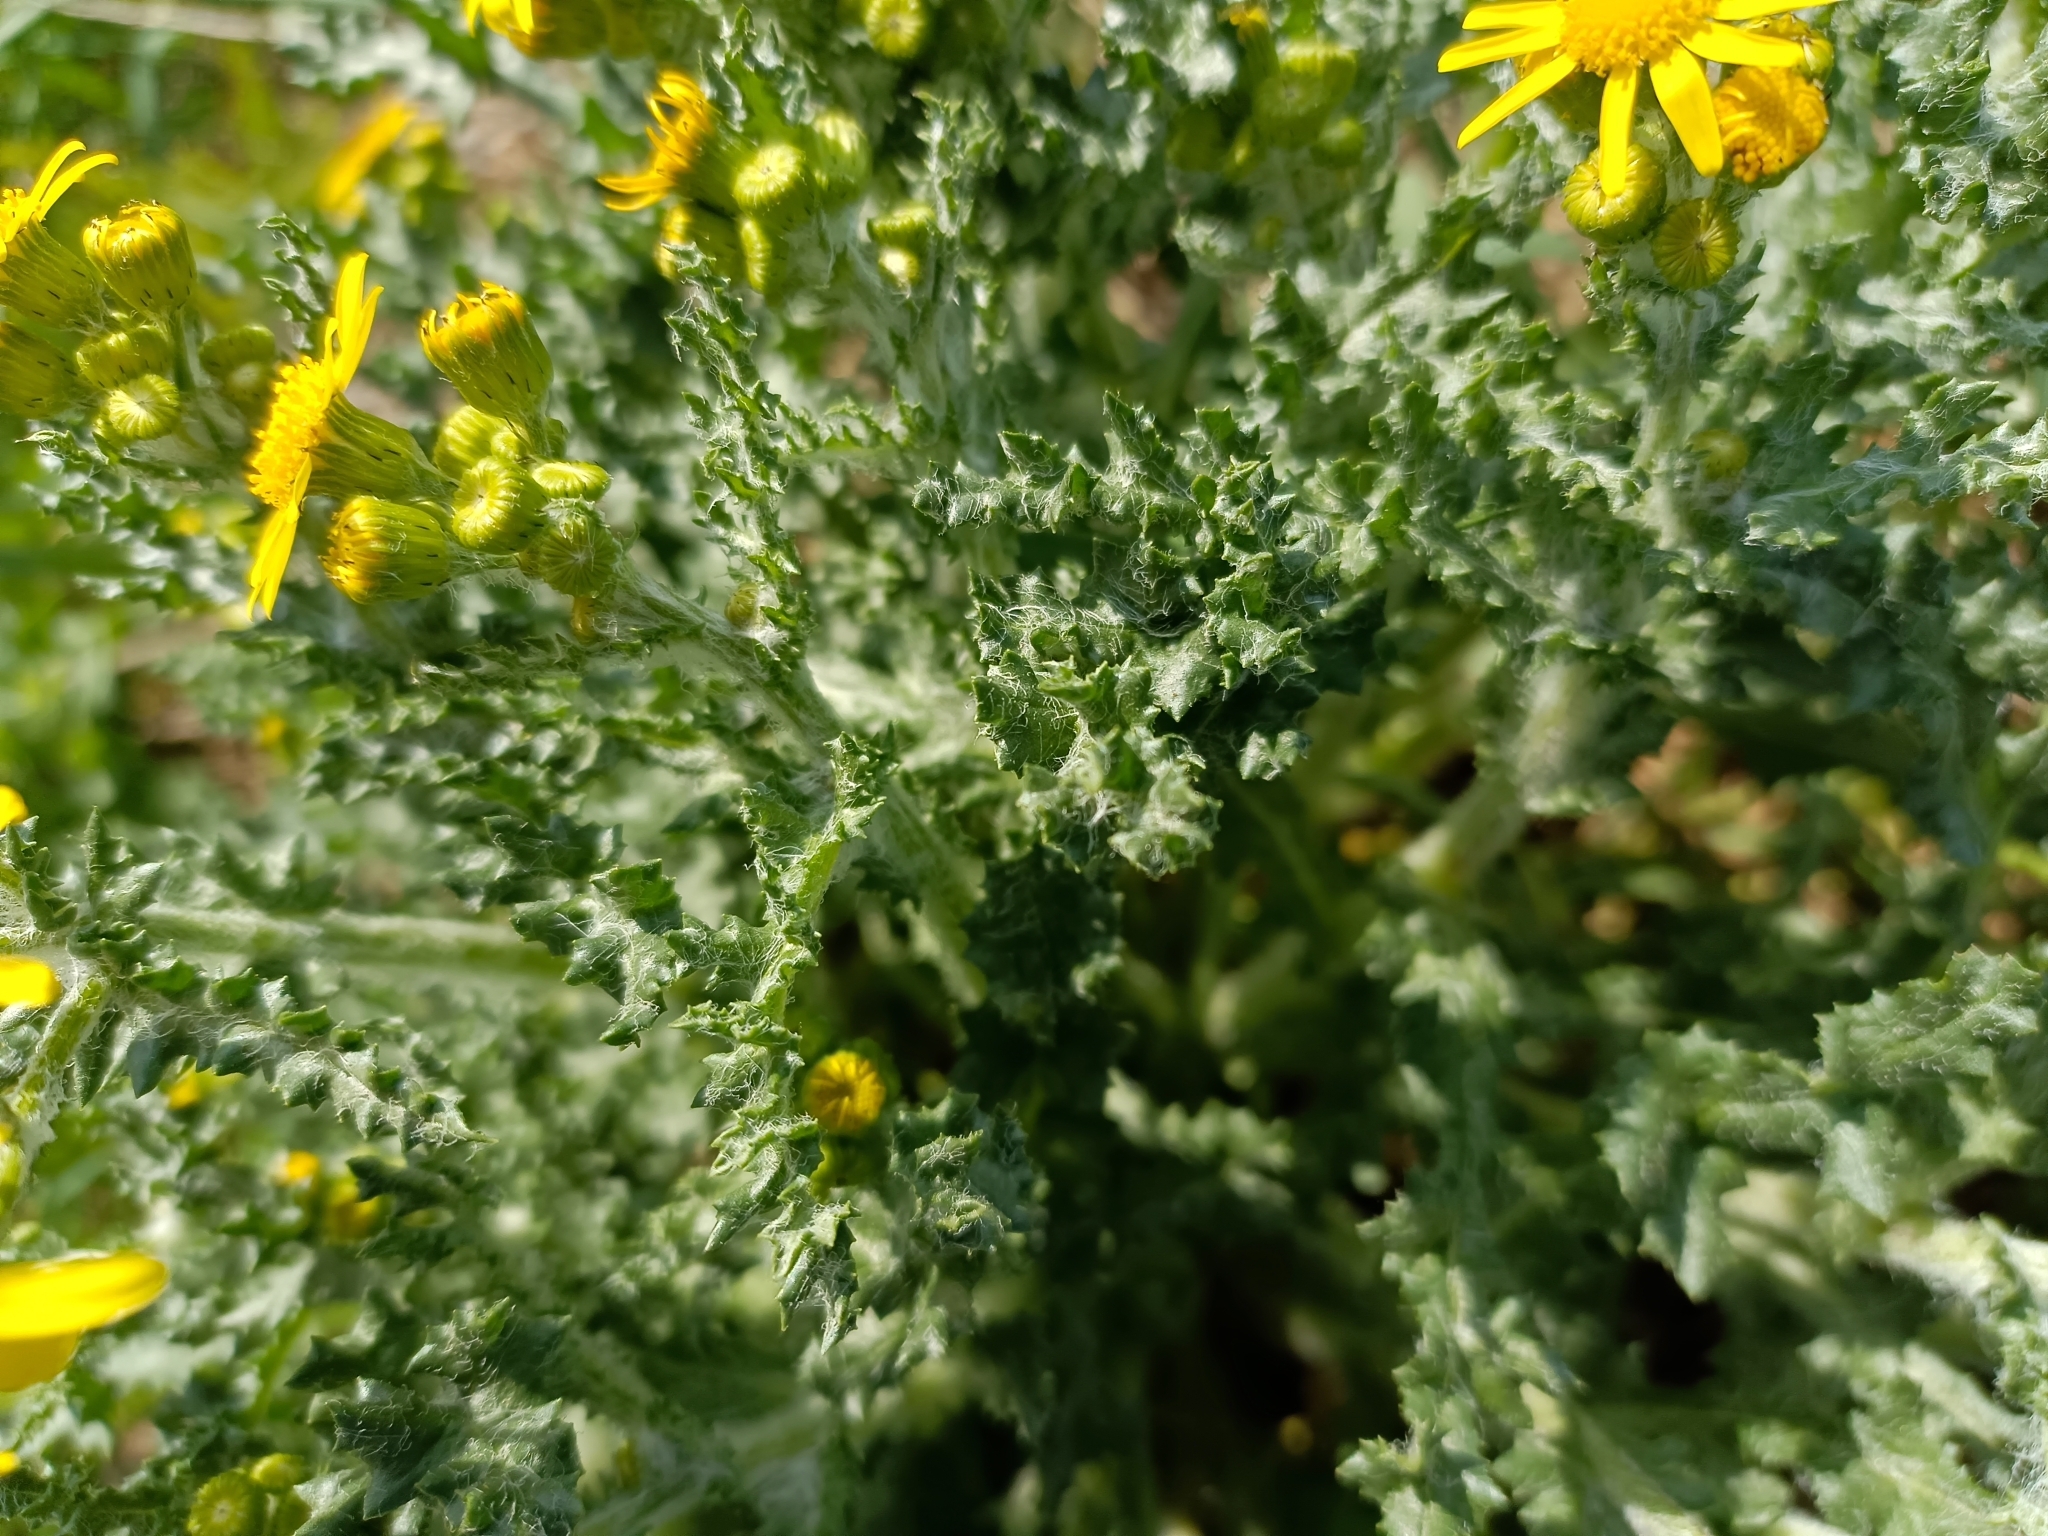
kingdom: Plantae
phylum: Tracheophyta
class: Magnoliopsida
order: Asterales
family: Asteraceae
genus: Senecio
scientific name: Senecio vernalis
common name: Eastern groundsel
